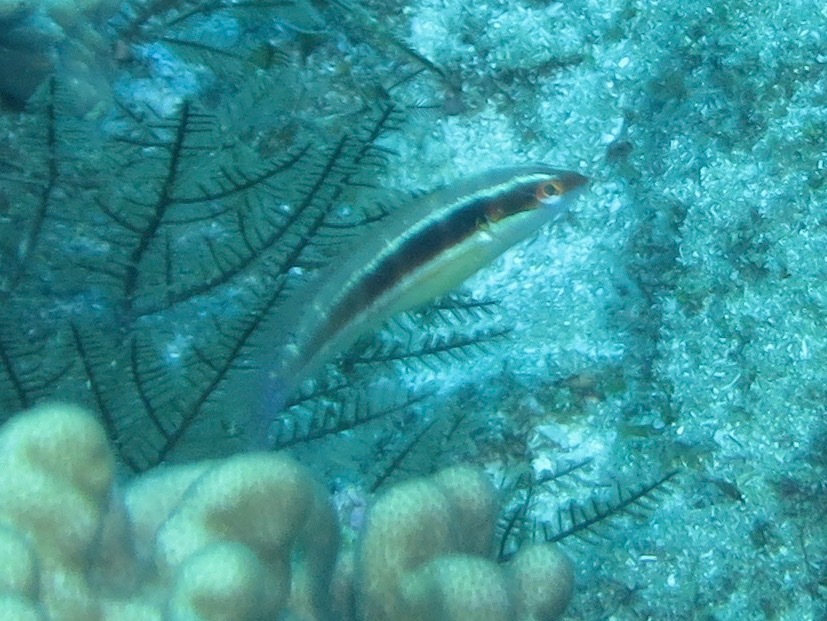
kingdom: Animalia
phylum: Chordata
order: Perciformes
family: Labridae
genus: Coris
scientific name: Coris caudimacula
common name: Spottail coris
